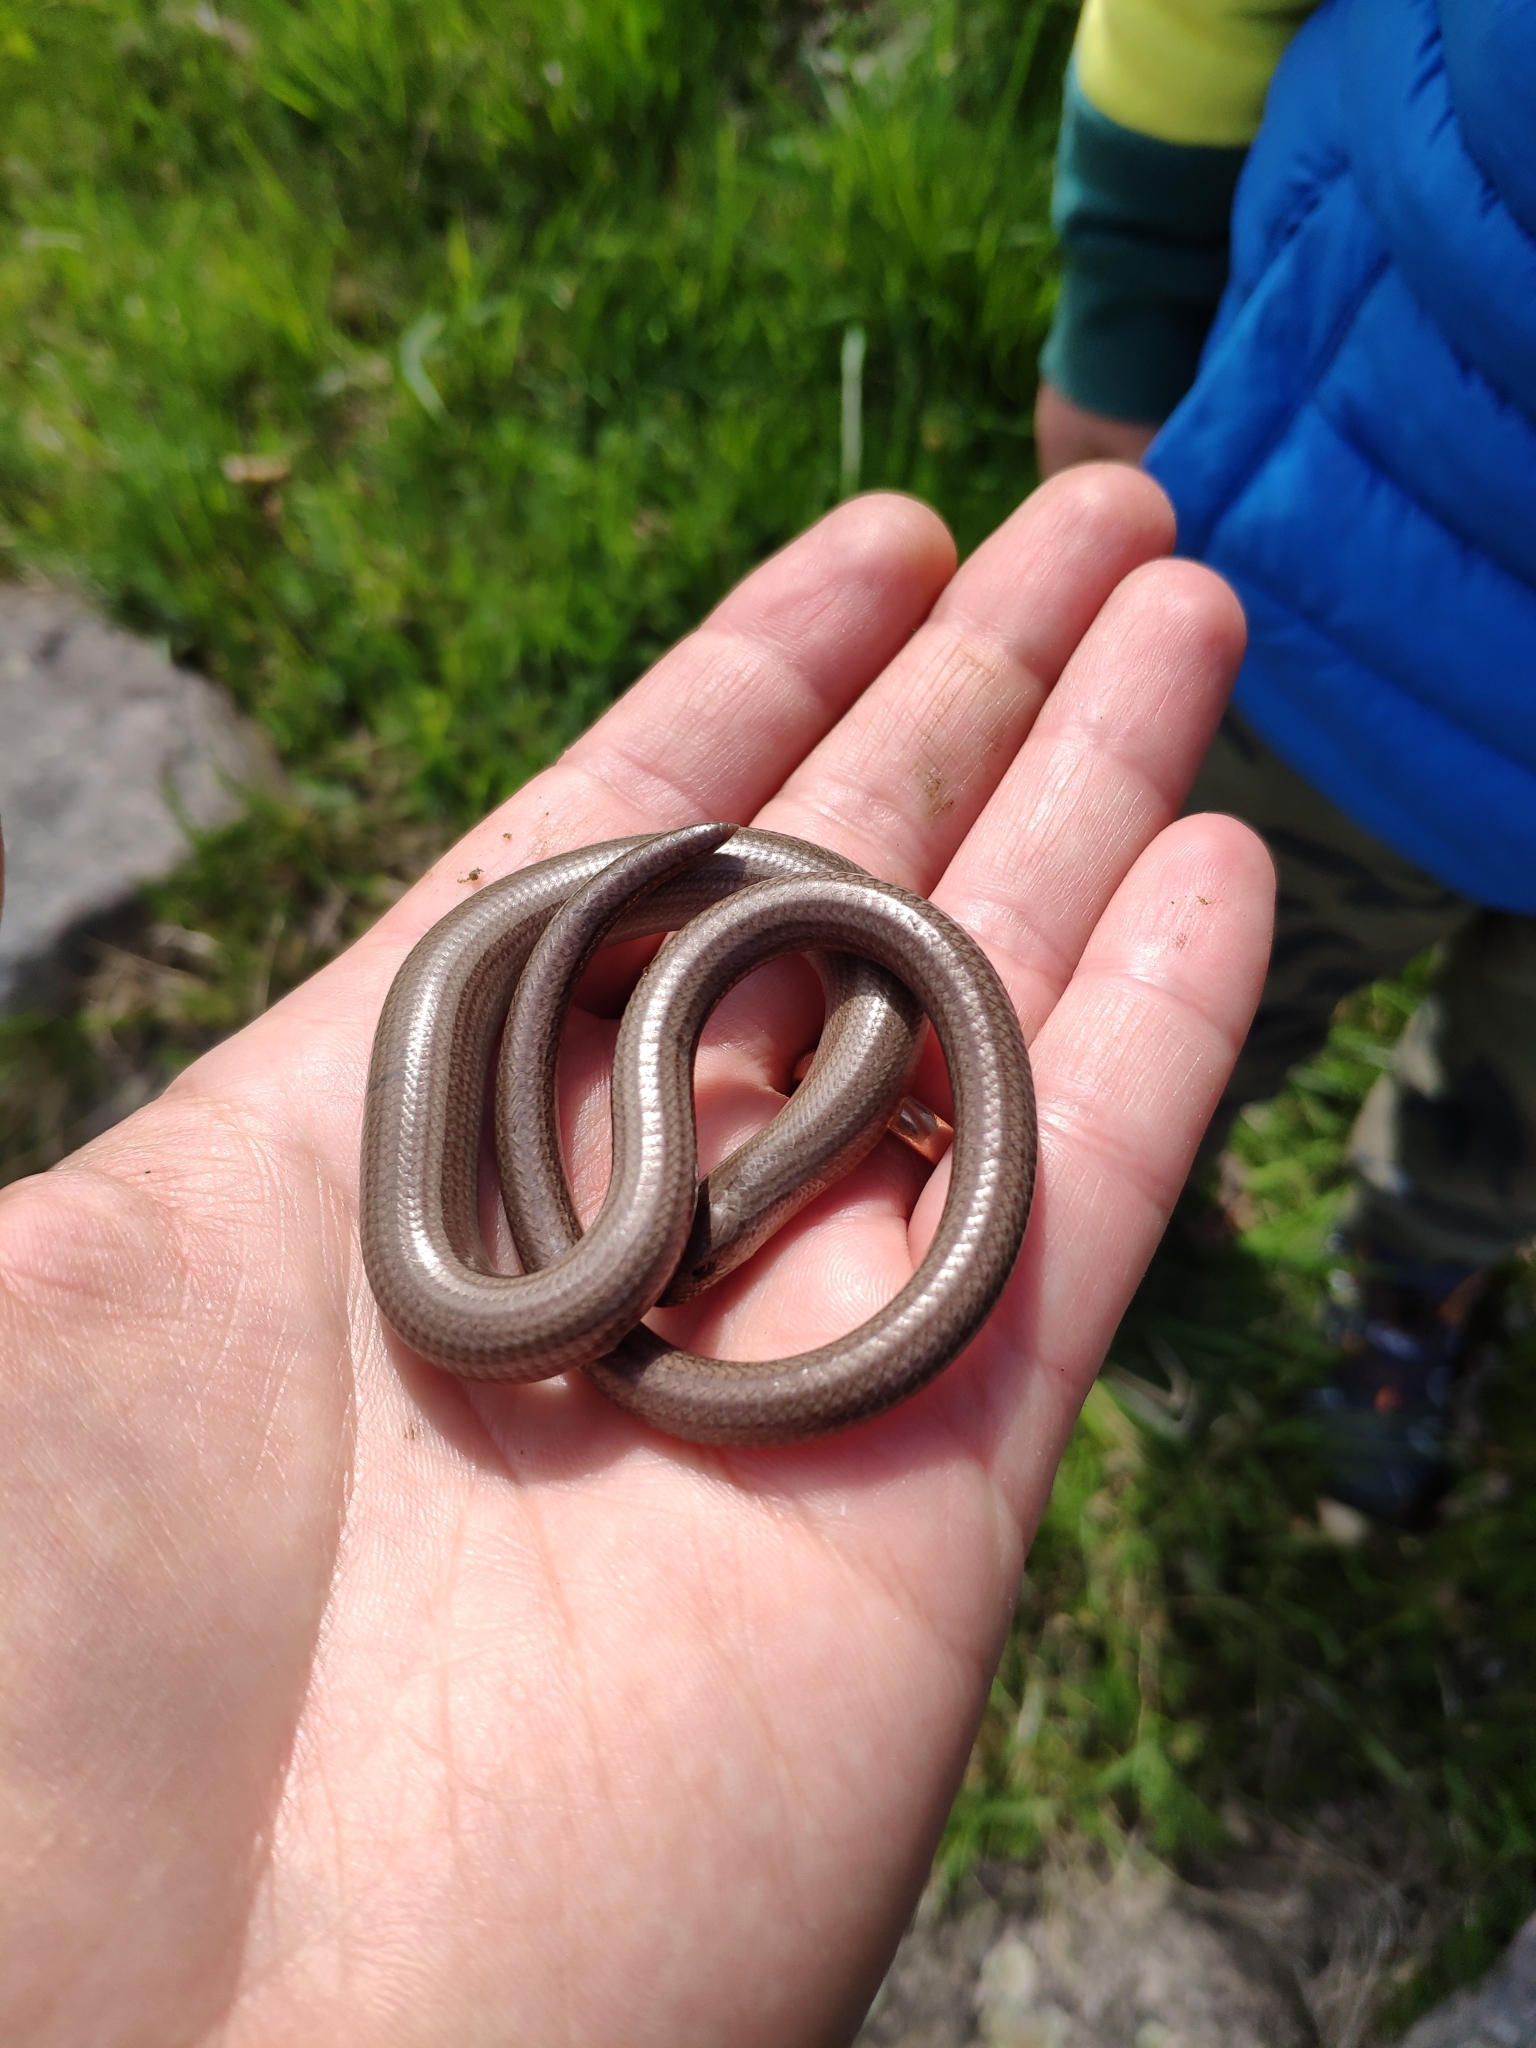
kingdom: Animalia
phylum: Chordata
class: Squamata
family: Anguidae
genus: Anguis
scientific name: Anguis veronensis
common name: Italian slow worm
